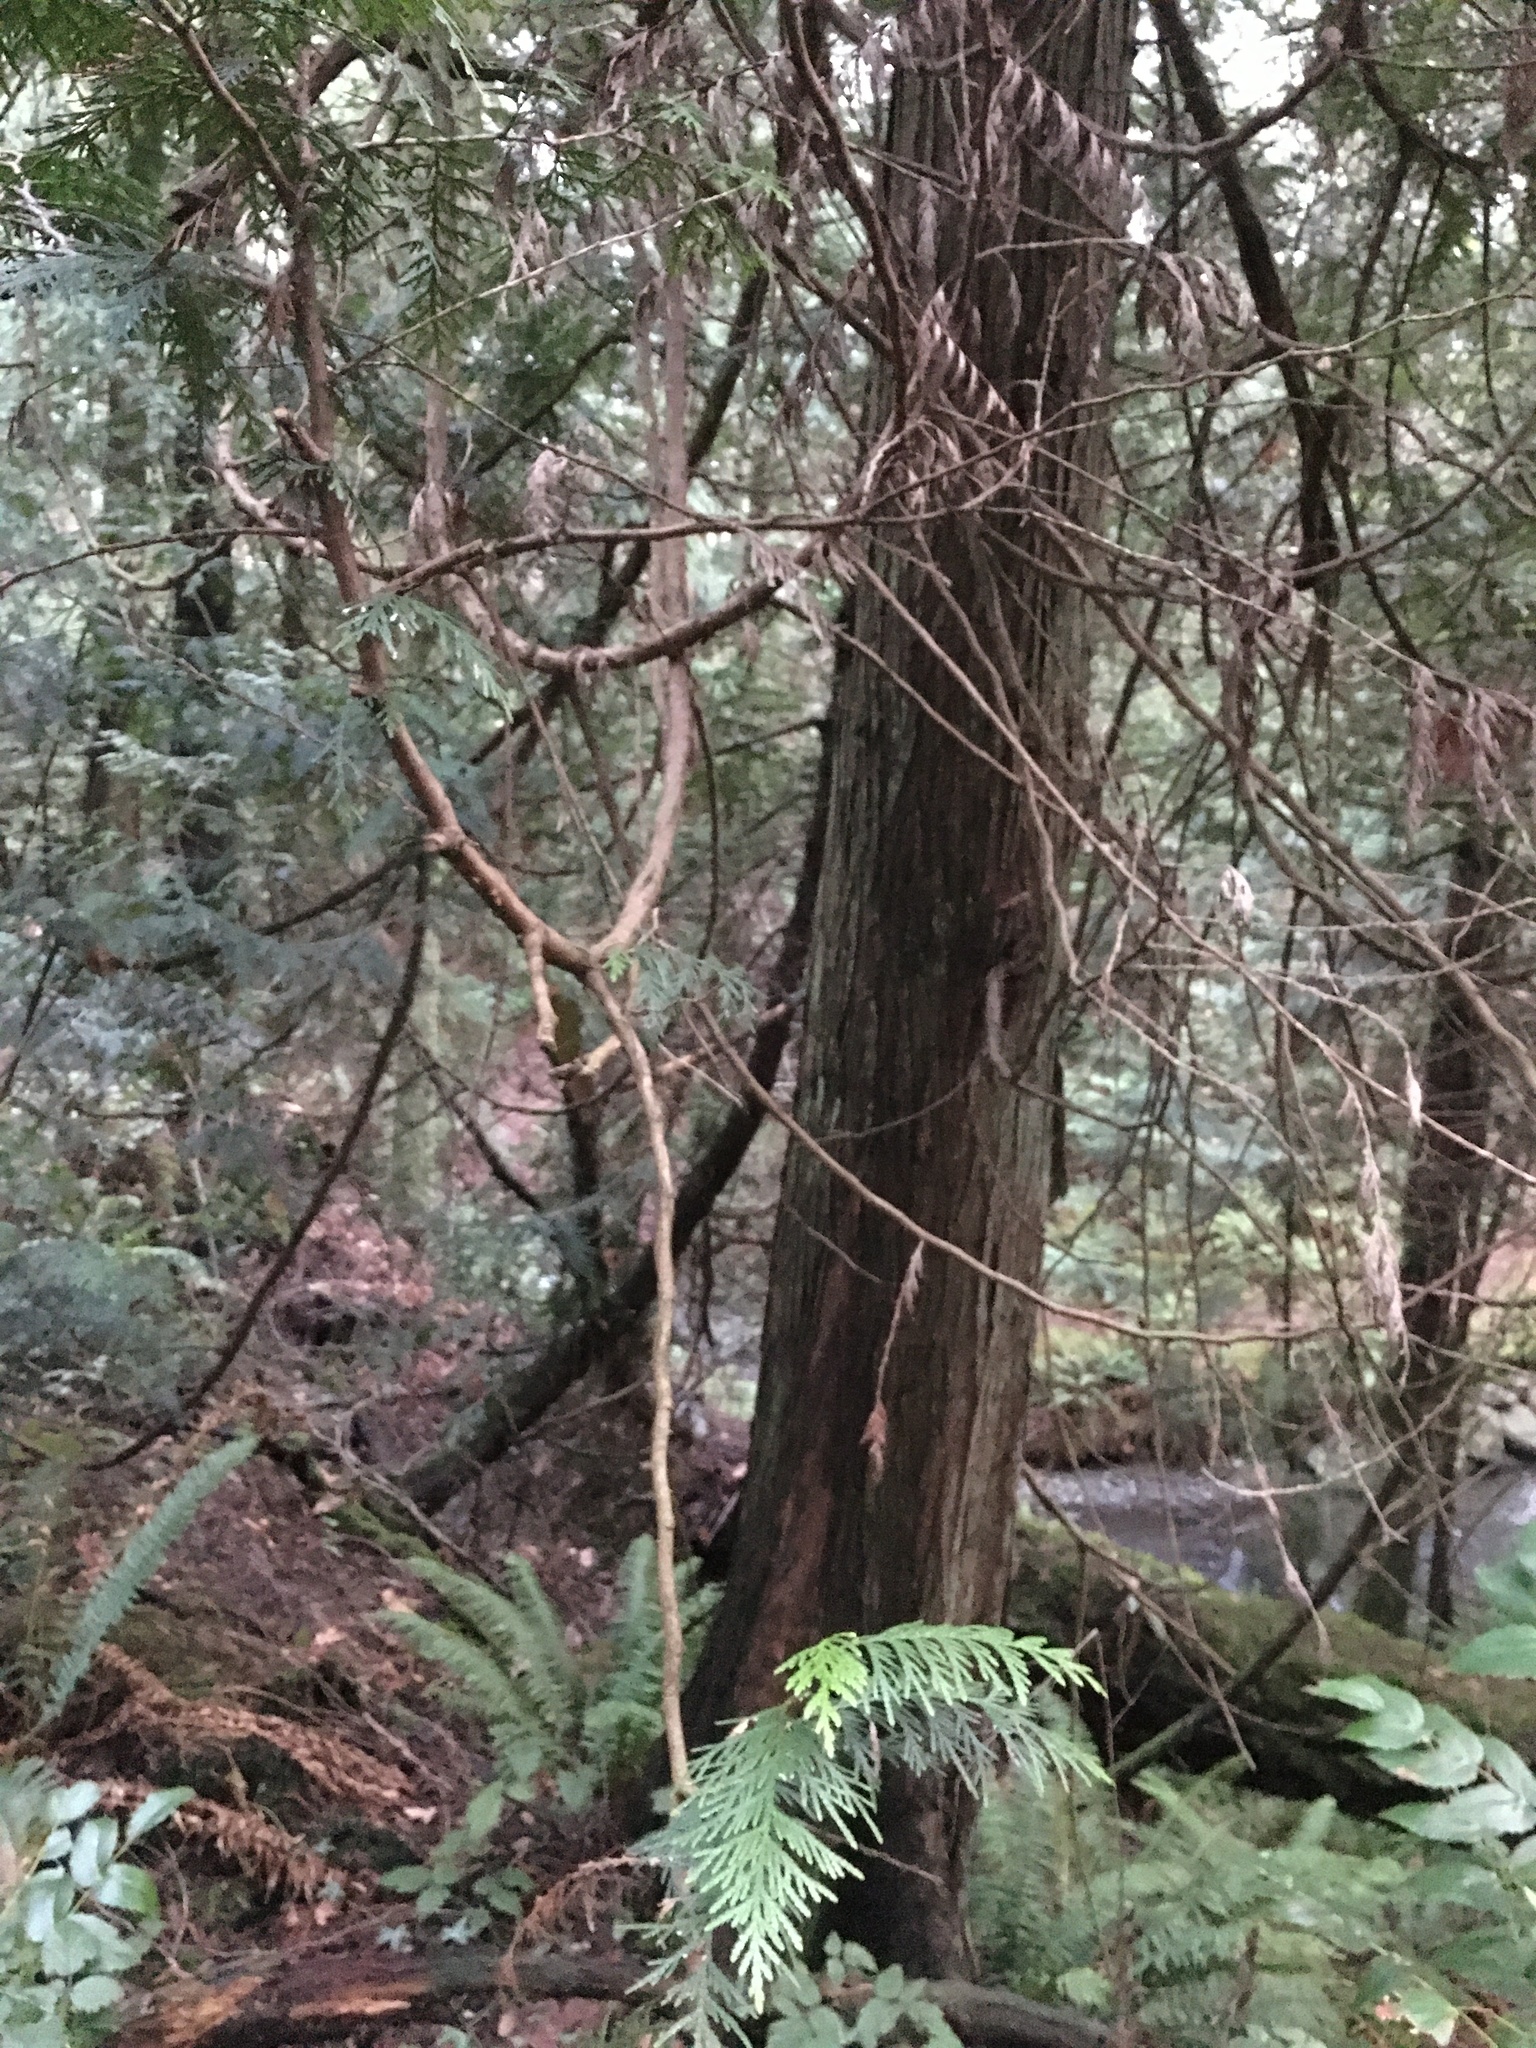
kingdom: Plantae
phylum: Tracheophyta
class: Pinopsida
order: Pinales
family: Cupressaceae
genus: Thuja
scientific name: Thuja plicata
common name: Western red-cedar
